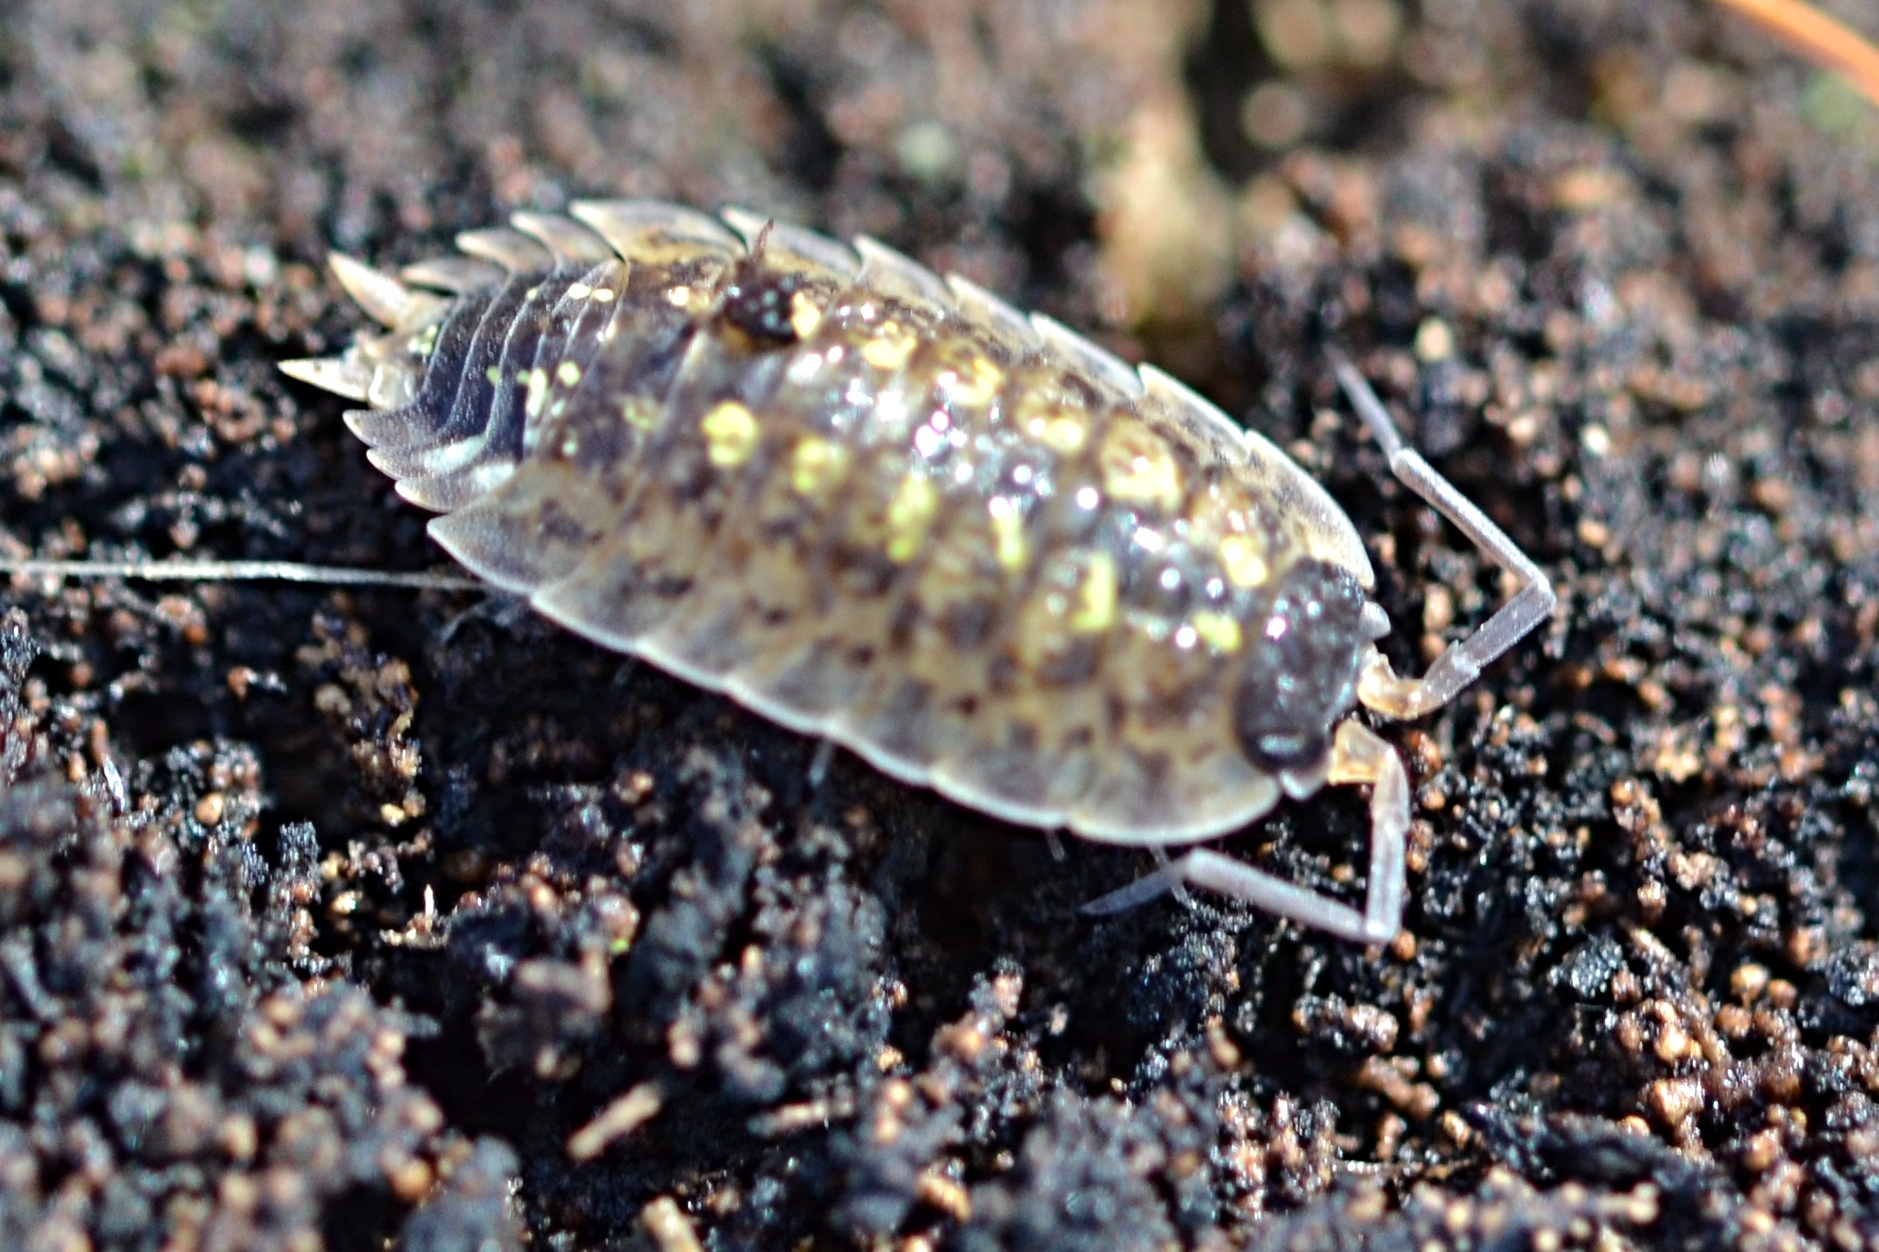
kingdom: Animalia
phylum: Arthropoda
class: Malacostraca
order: Isopoda
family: Porcellionidae
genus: Porcellio
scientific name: Porcellio spinicornis
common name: Painted woodlouse
